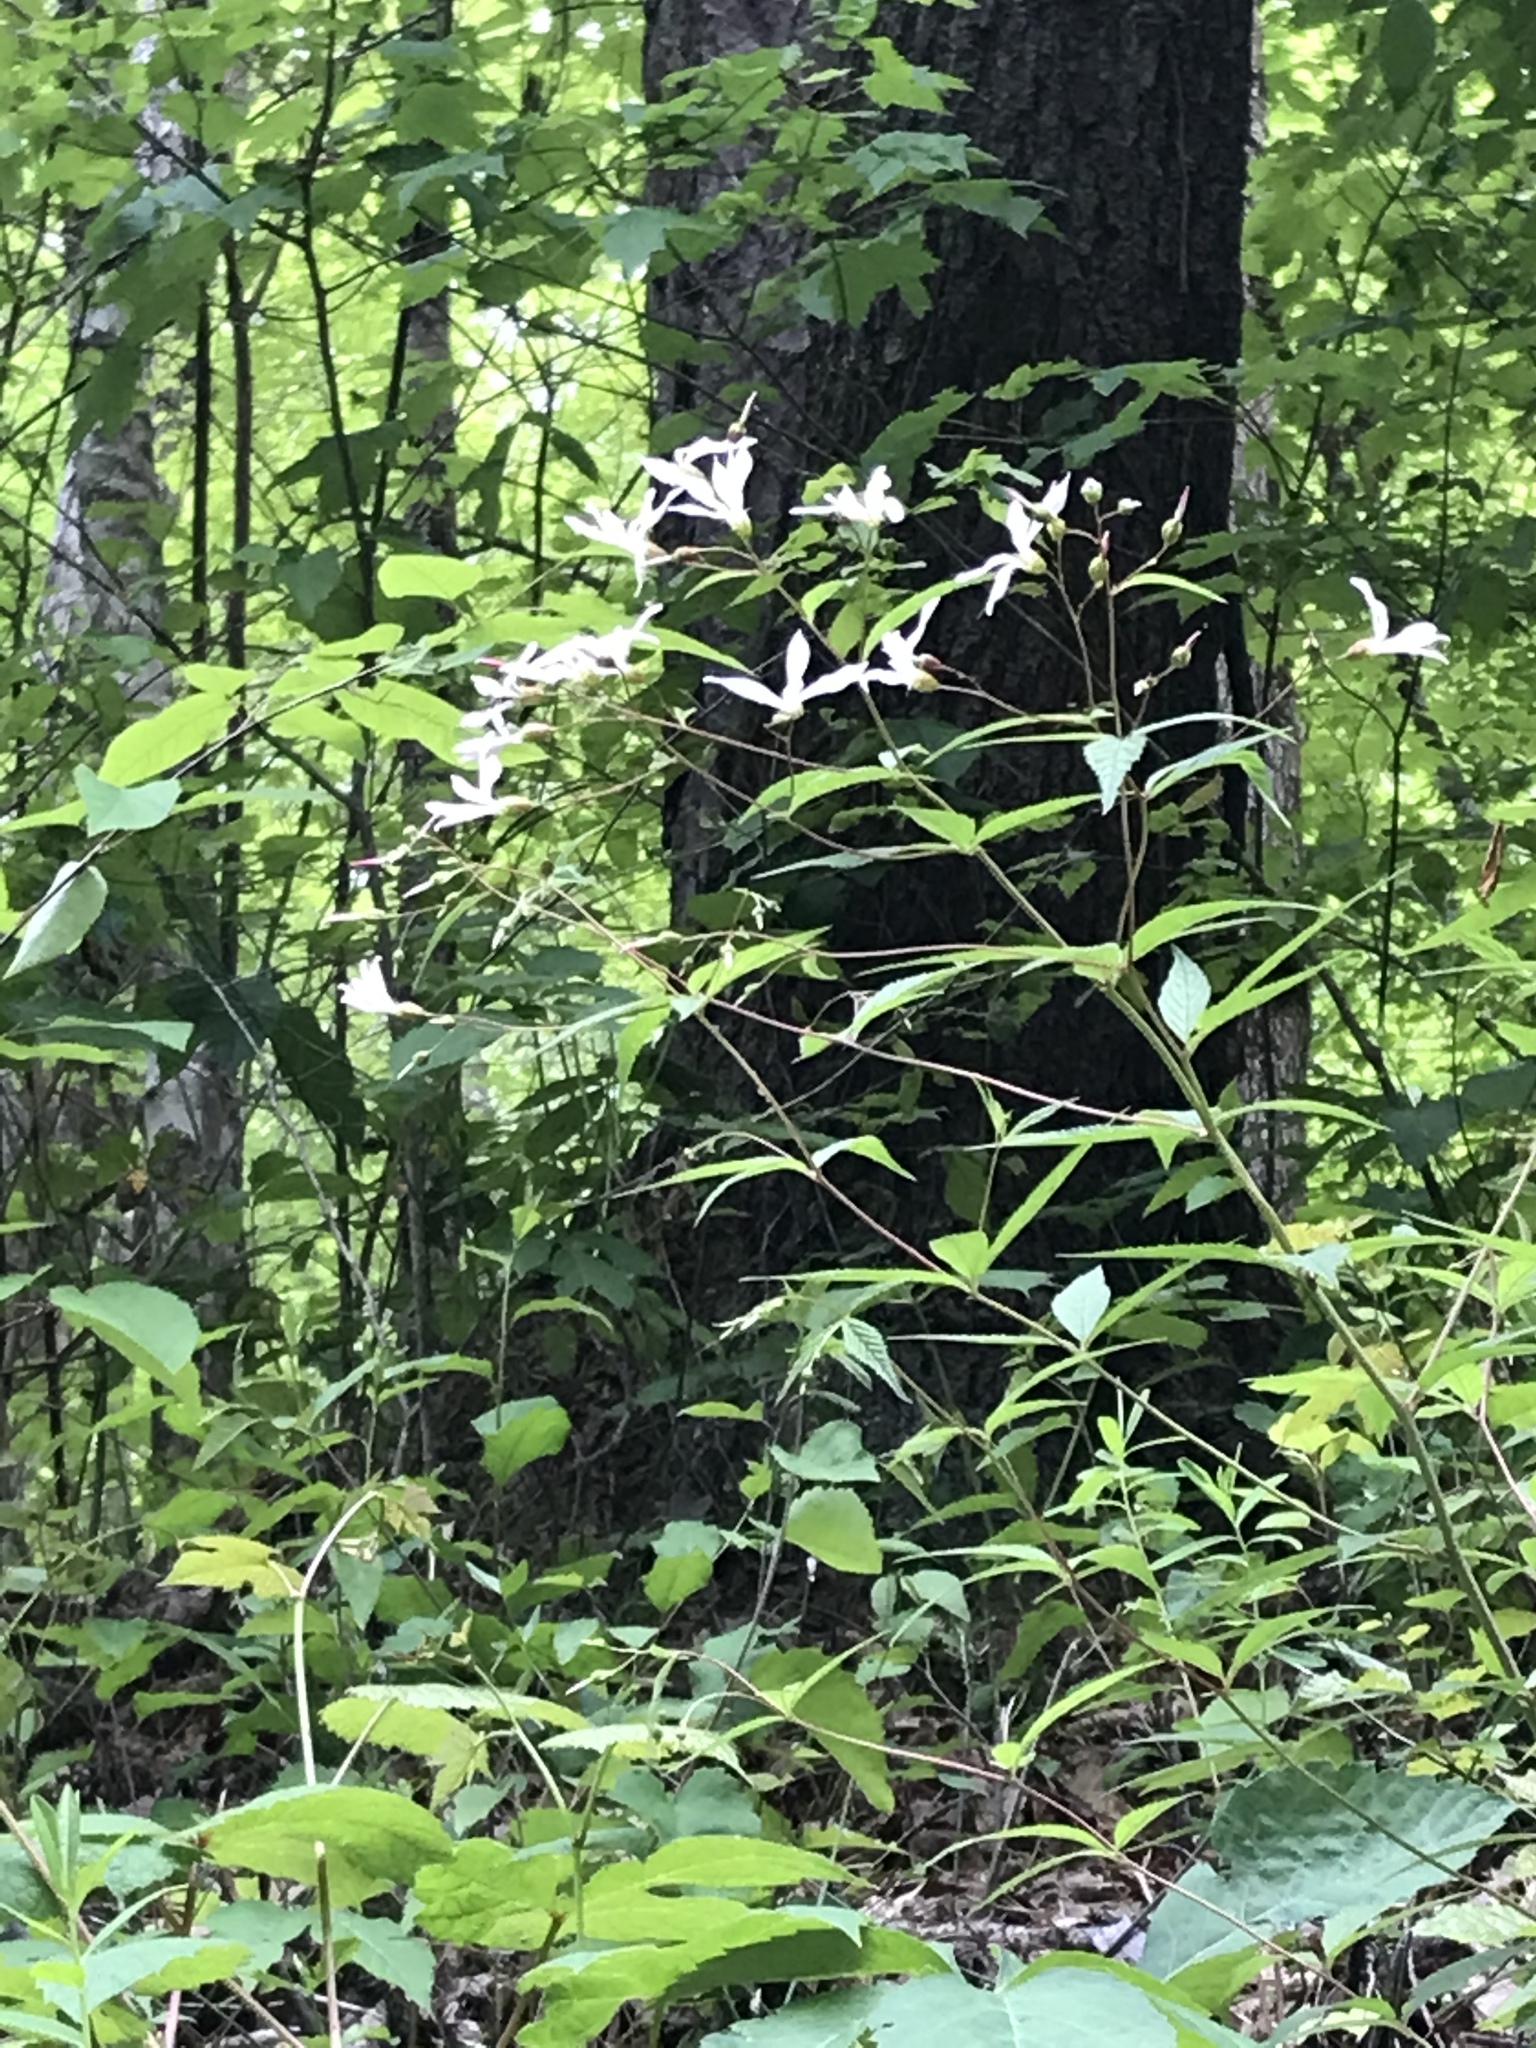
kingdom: Plantae
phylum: Tracheophyta
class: Magnoliopsida
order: Rosales
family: Rosaceae
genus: Gillenia
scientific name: Gillenia trifoliata
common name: Bowman's-root
